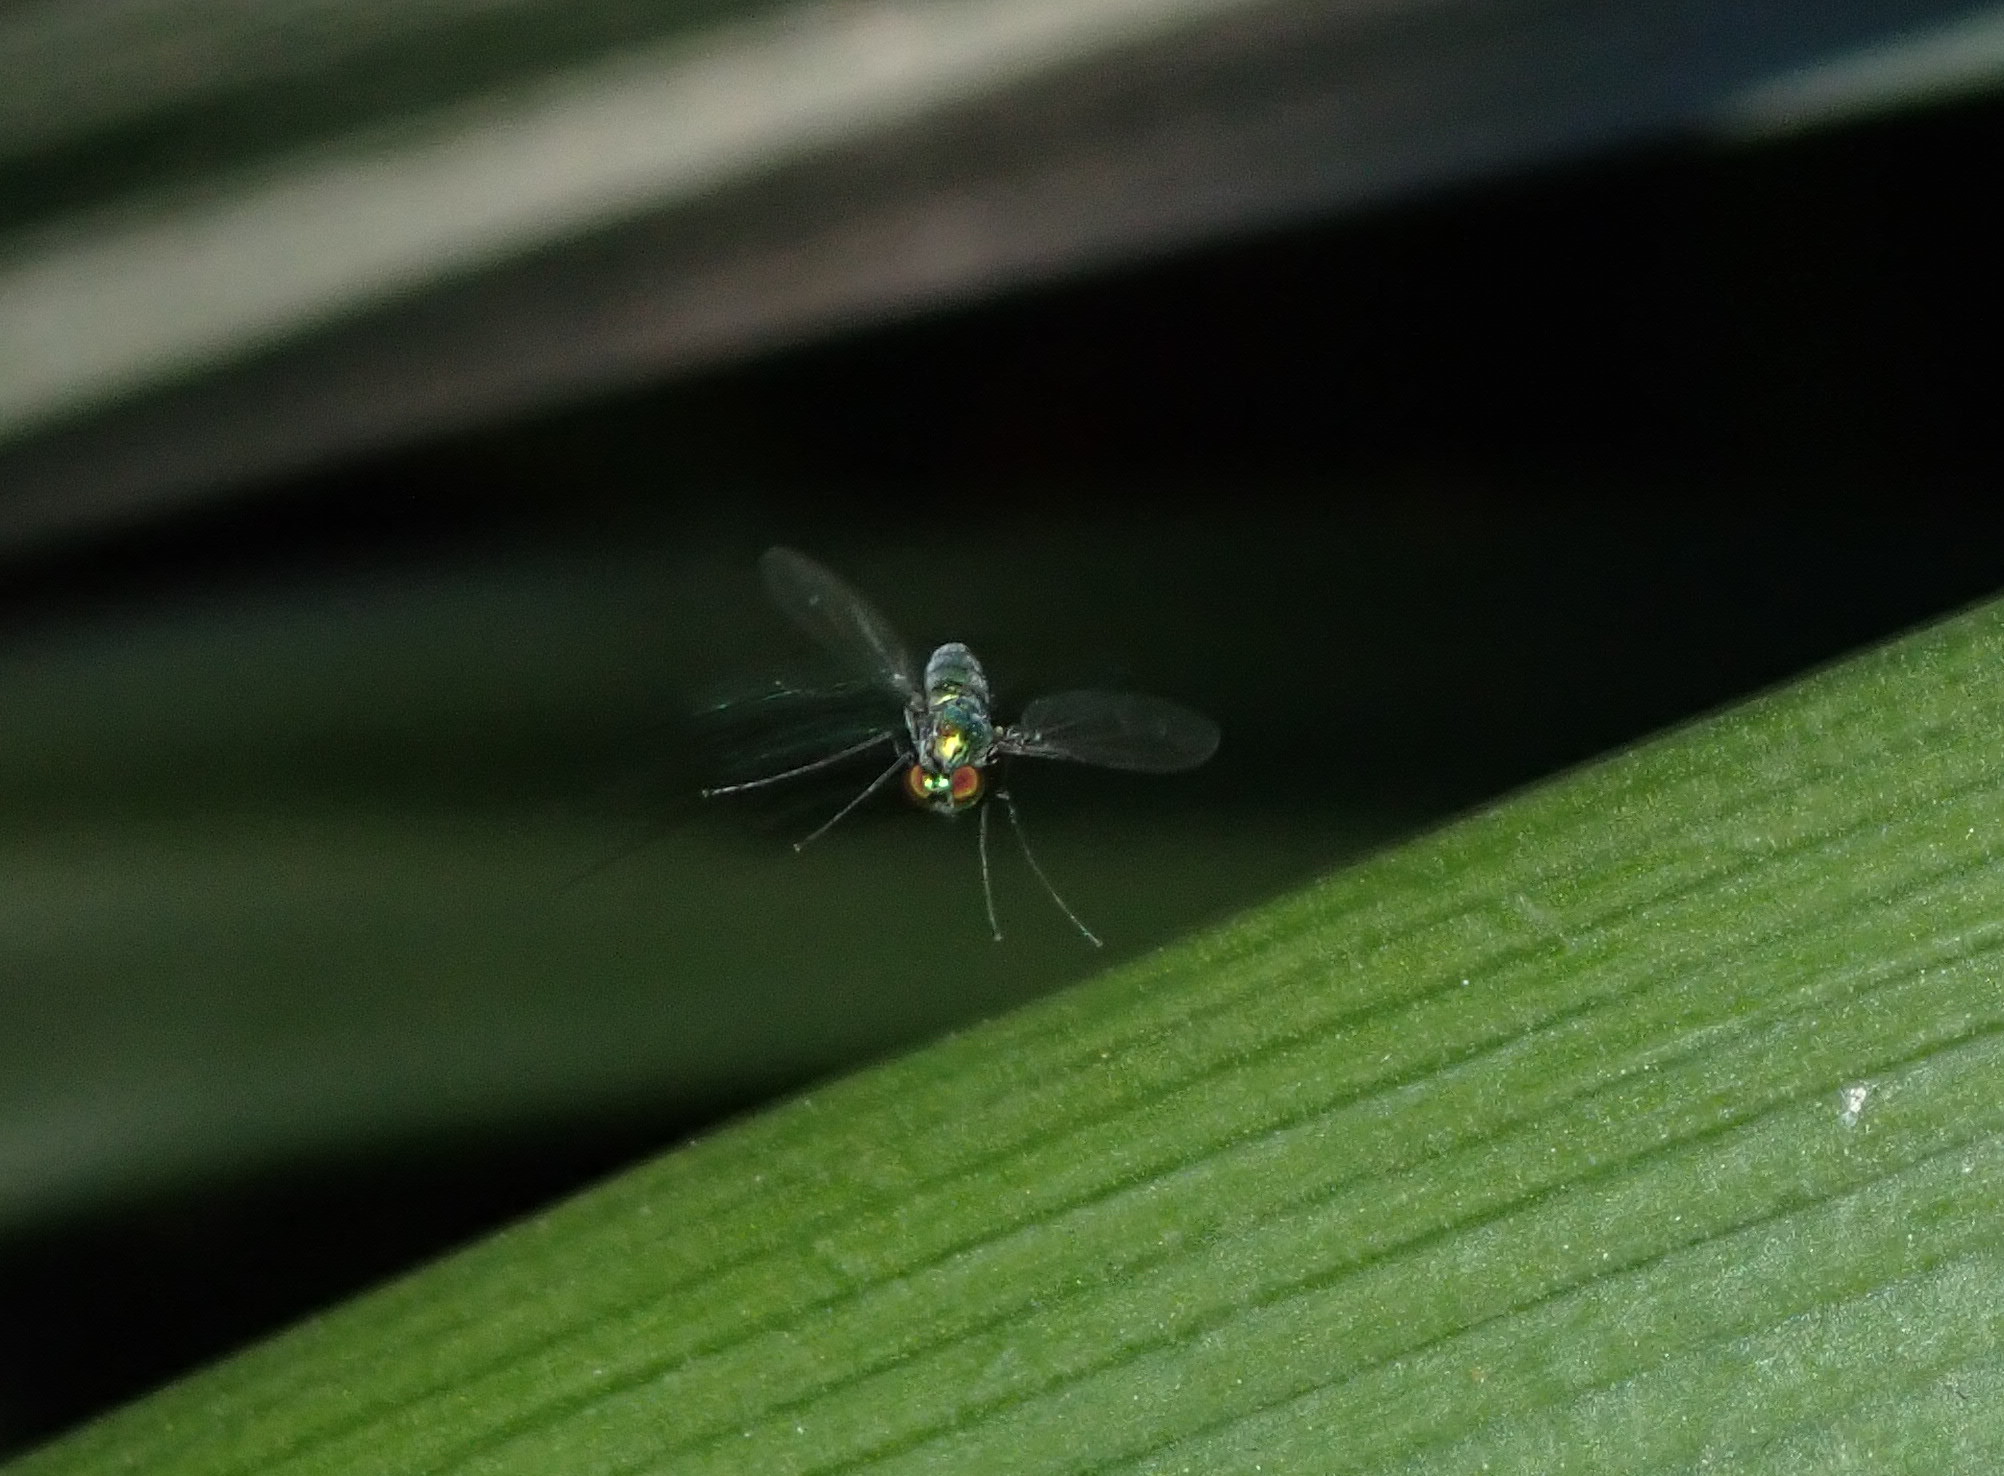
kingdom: Animalia
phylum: Arthropoda
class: Insecta
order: Diptera
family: Dolichopodidae
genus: Parentia
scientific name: Parentia
